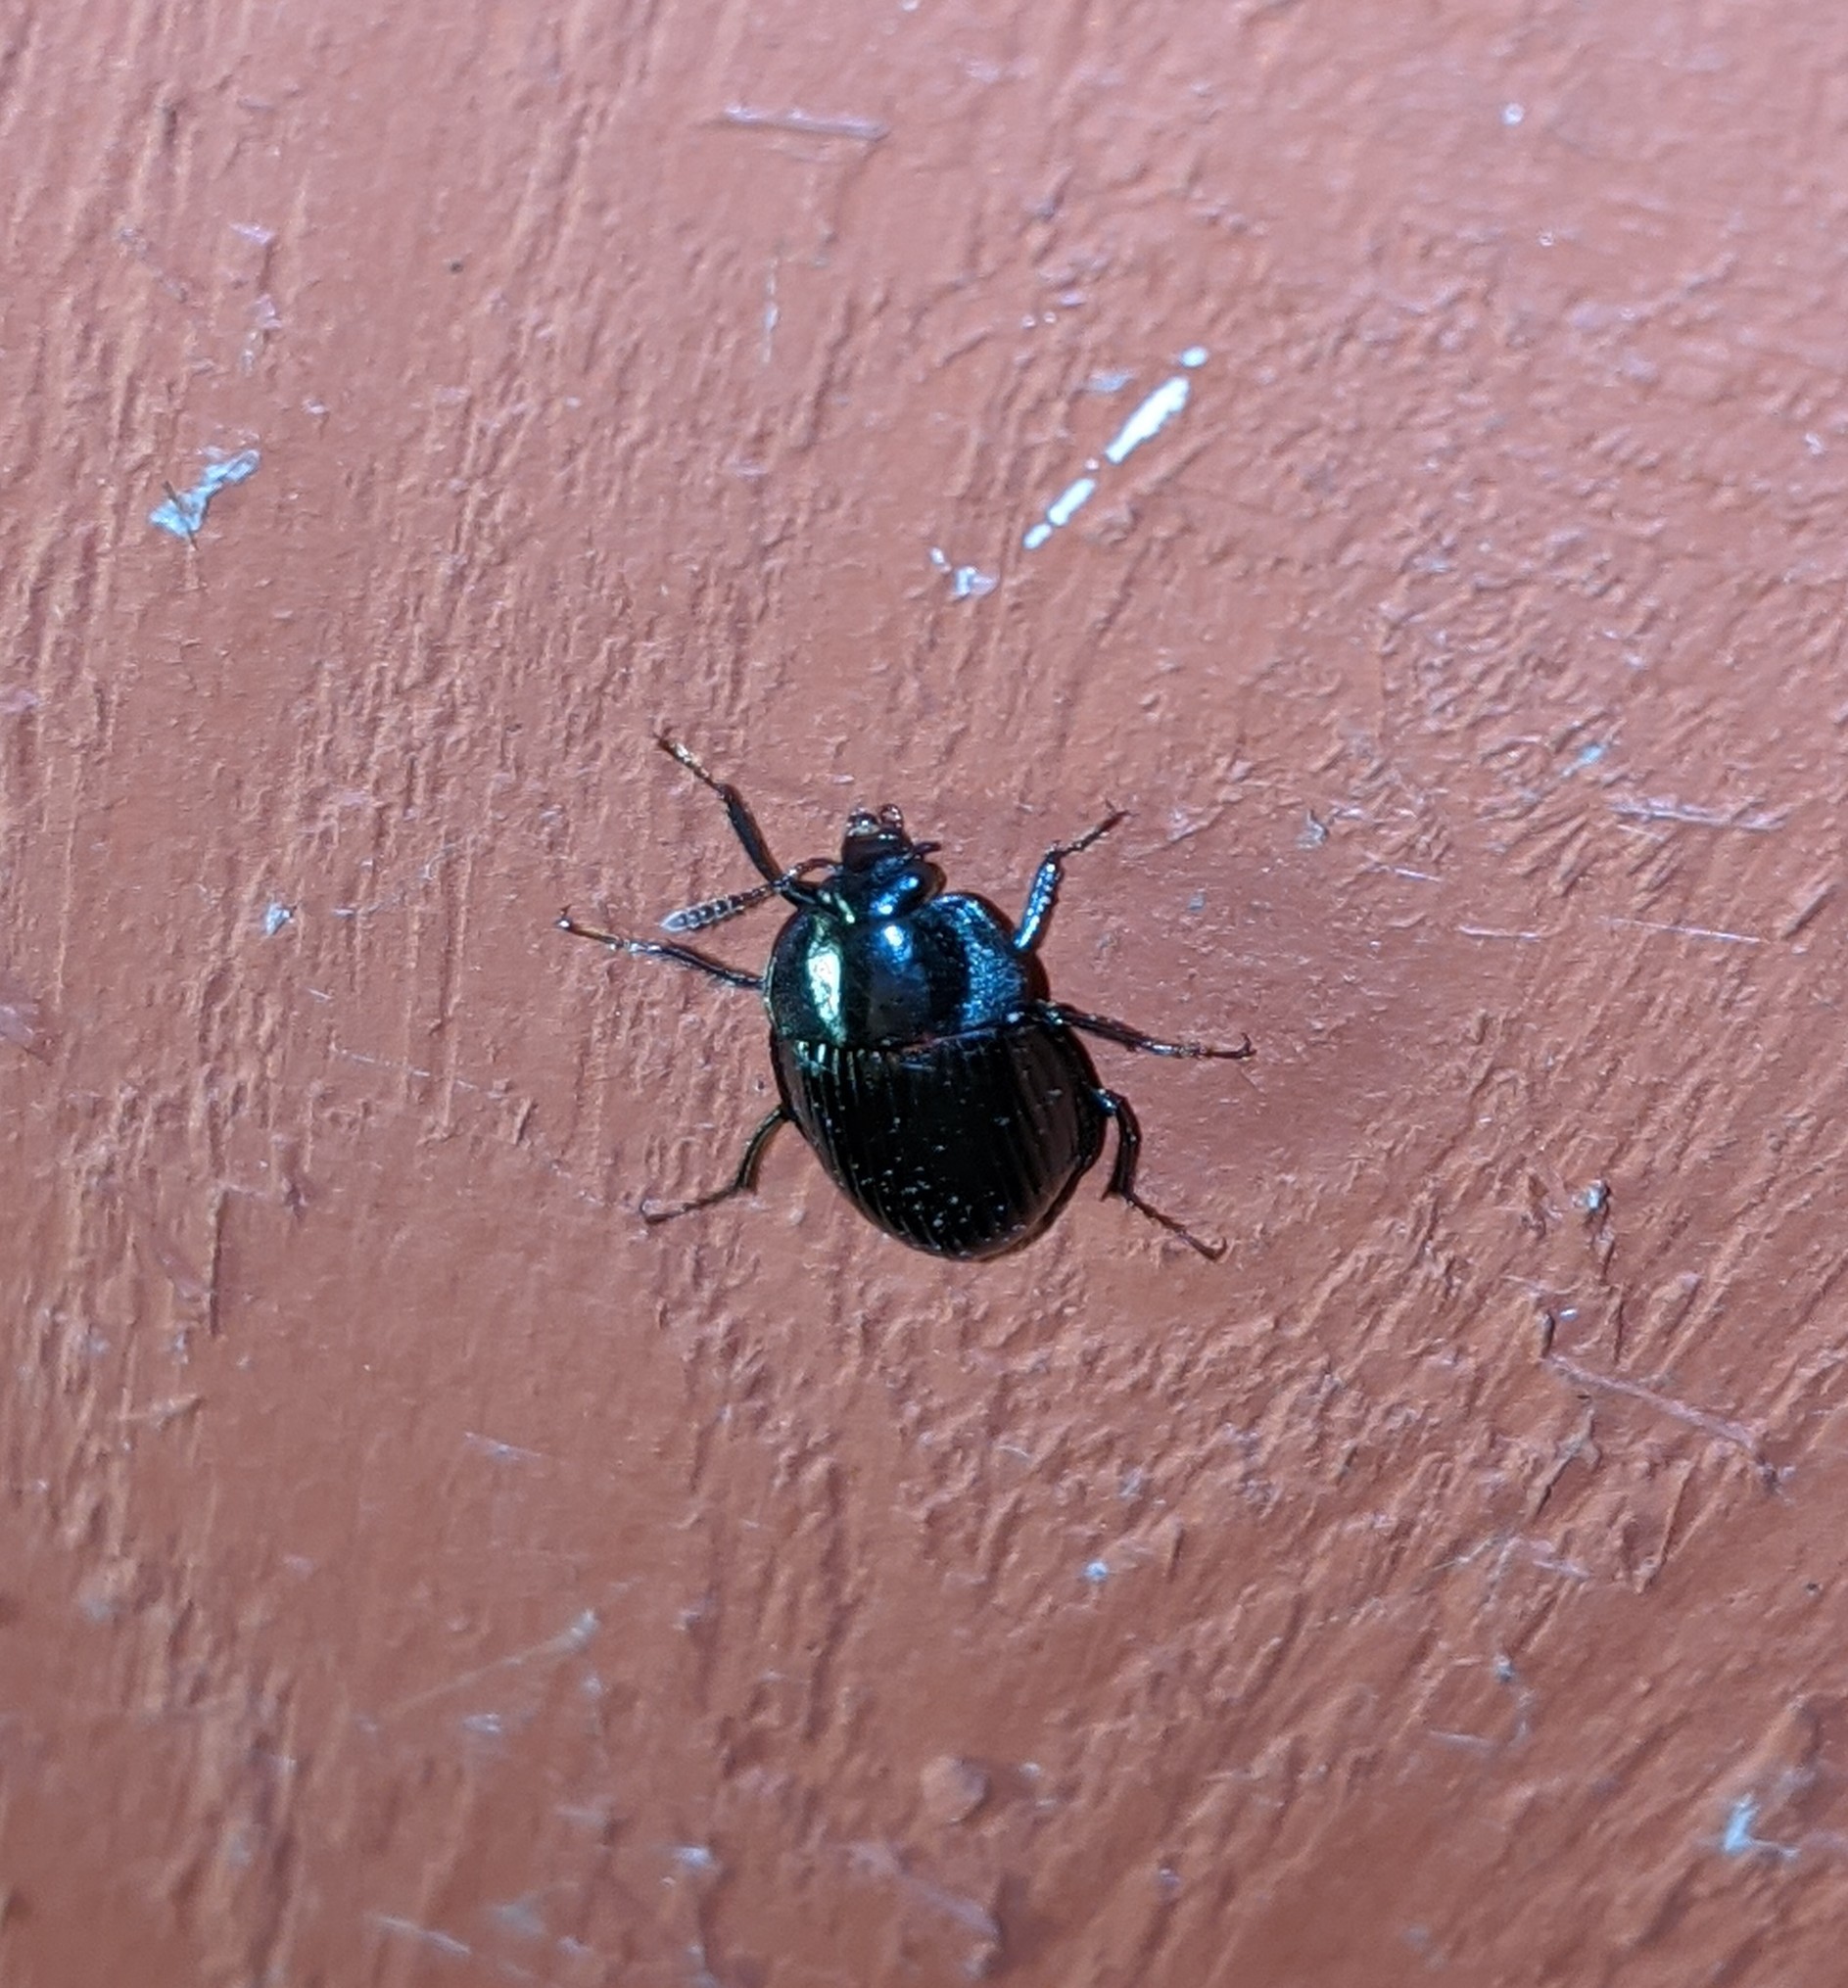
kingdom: Animalia
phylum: Arthropoda
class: Insecta
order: Coleoptera
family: Agyrtidae
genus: Necrophilus
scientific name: Necrophilus hydrophiloides
